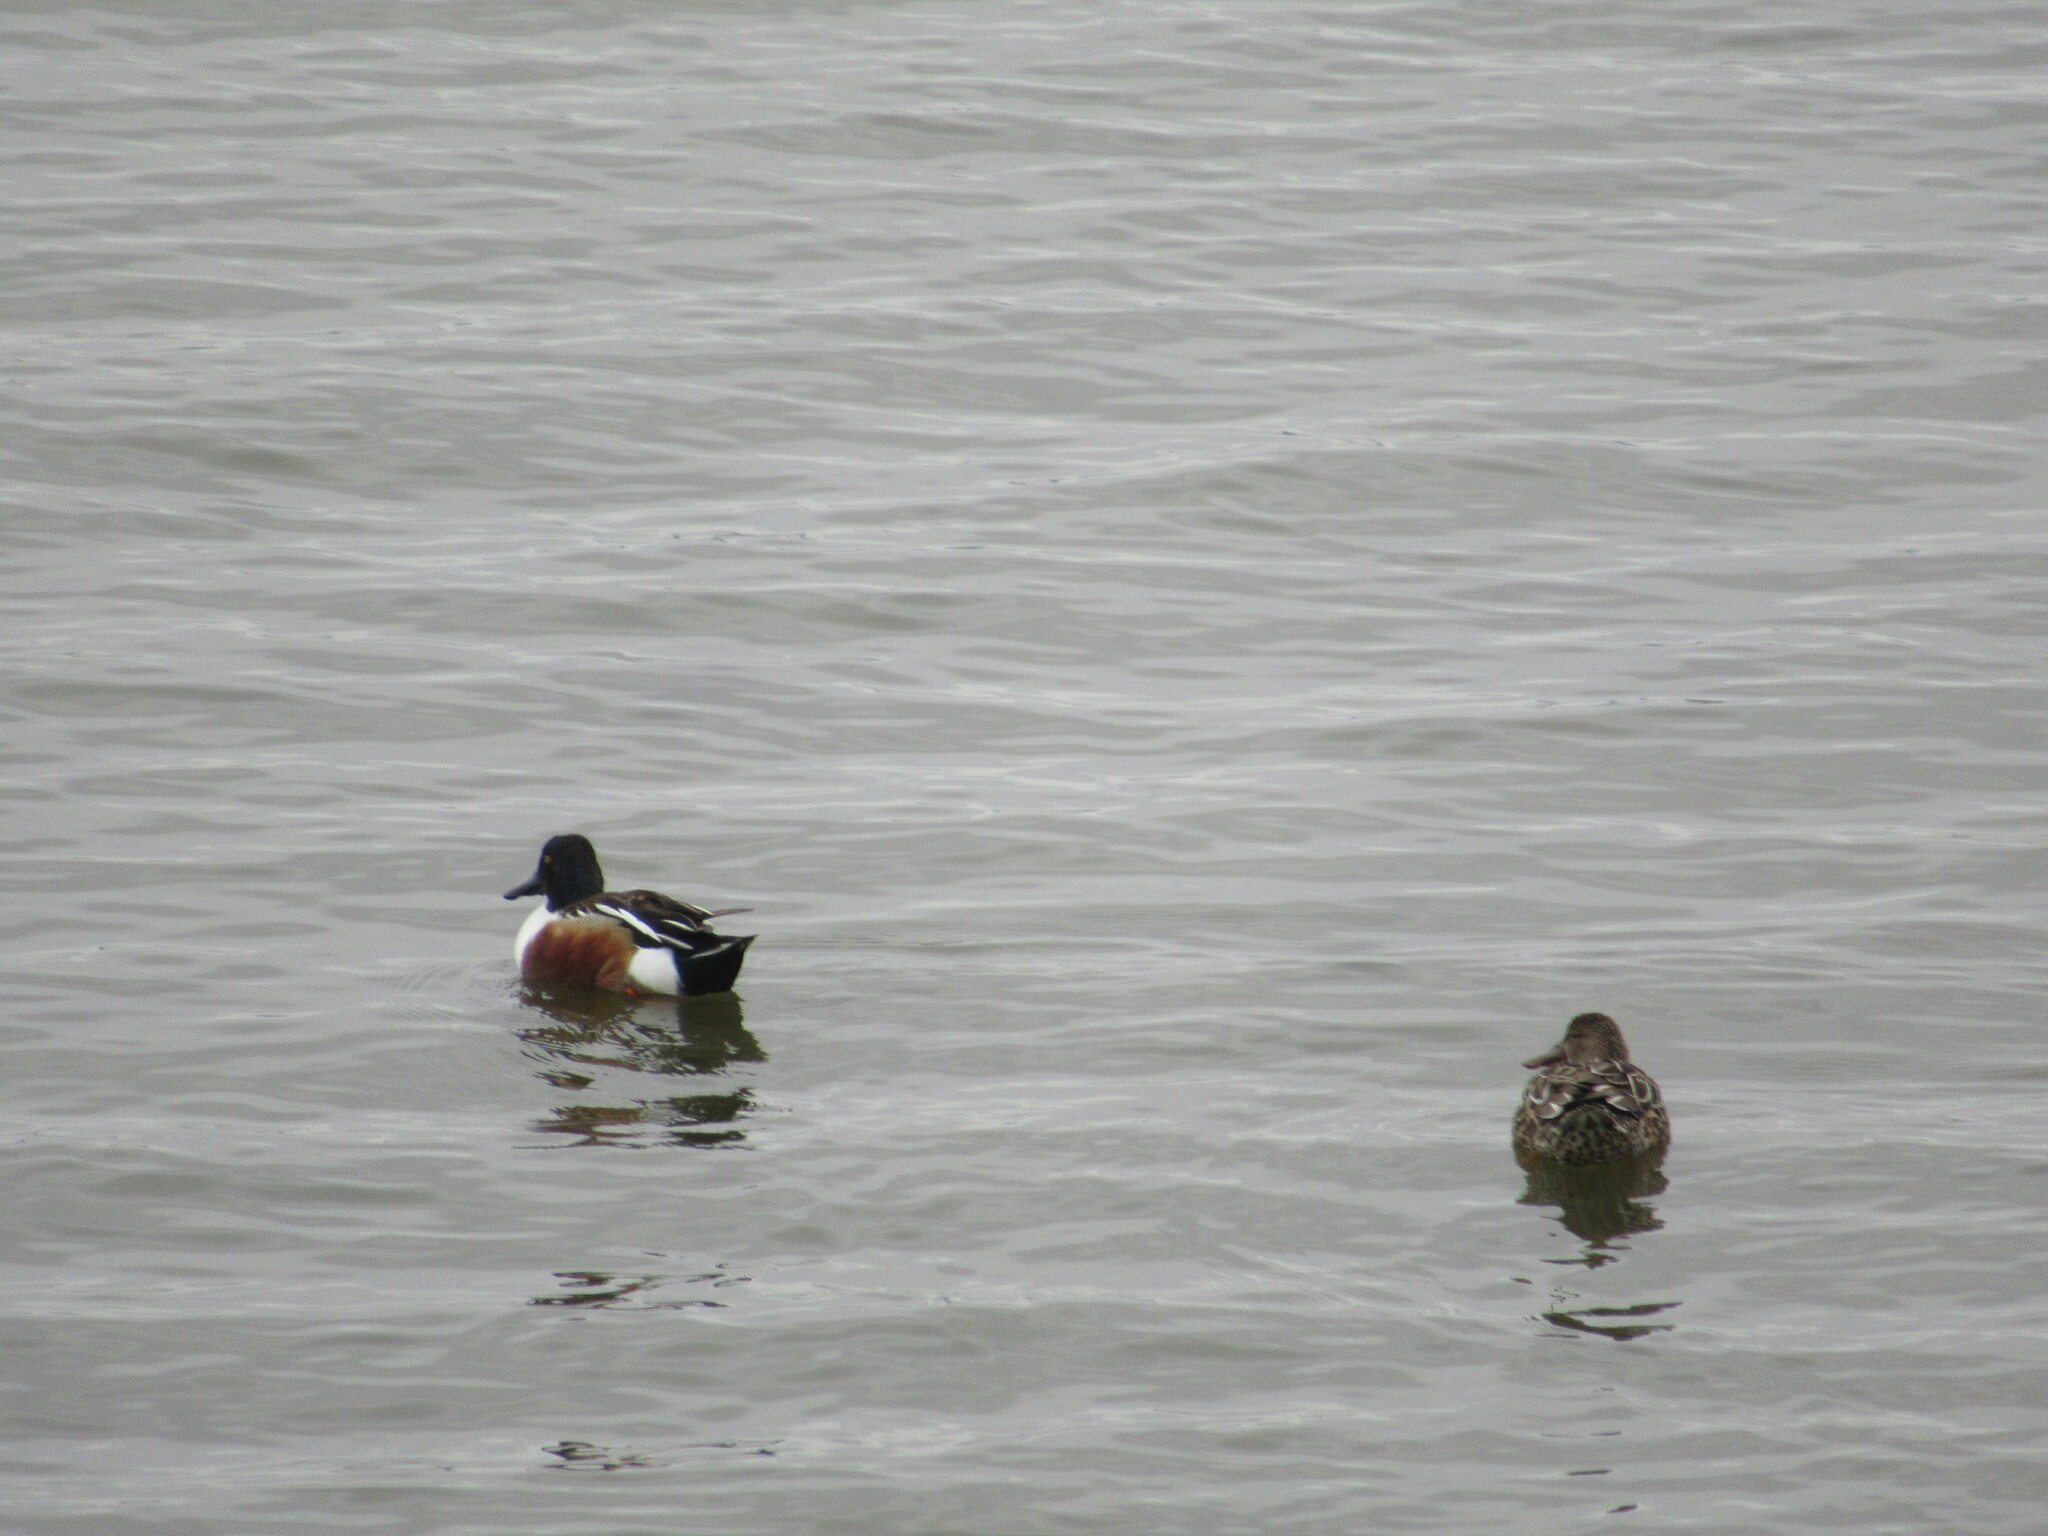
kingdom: Animalia
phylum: Chordata
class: Aves
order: Anseriformes
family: Anatidae
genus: Spatula
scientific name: Spatula clypeata
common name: Northern shoveler
